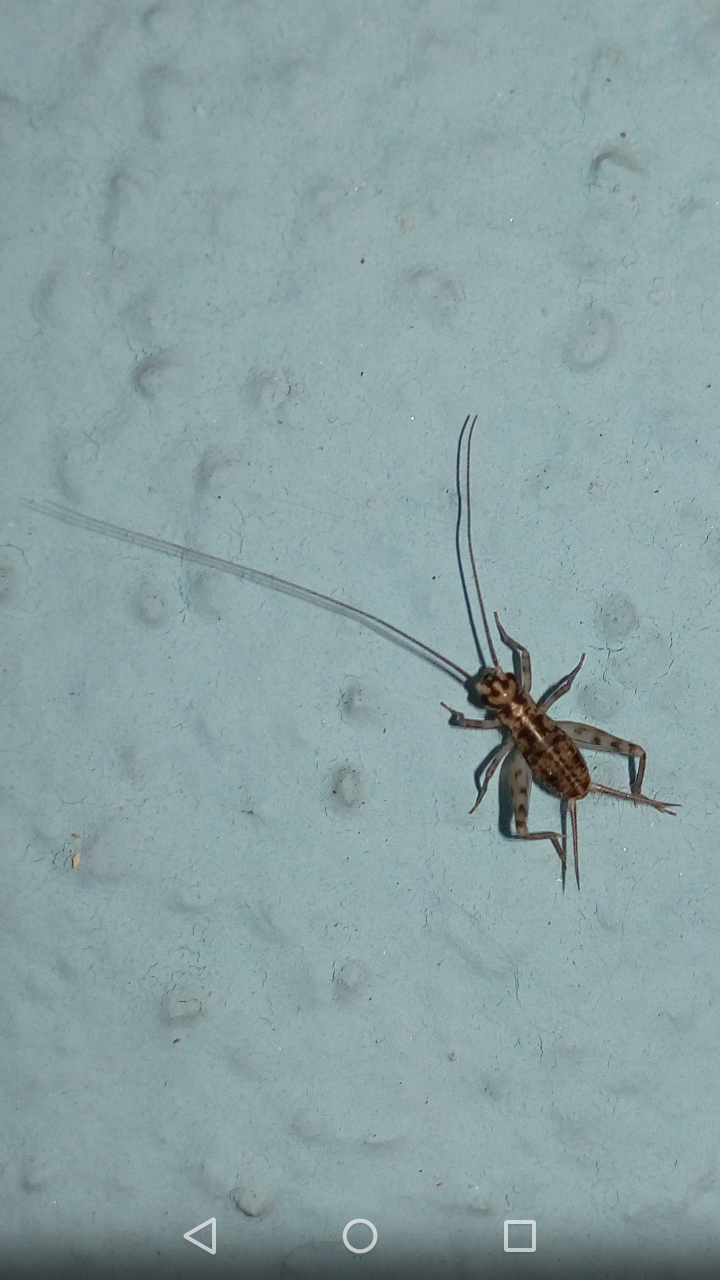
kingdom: Animalia
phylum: Arthropoda
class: Insecta
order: Orthoptera
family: Gryllidae
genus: Gryllomorpha
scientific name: Gryllomorpha dalmatina
